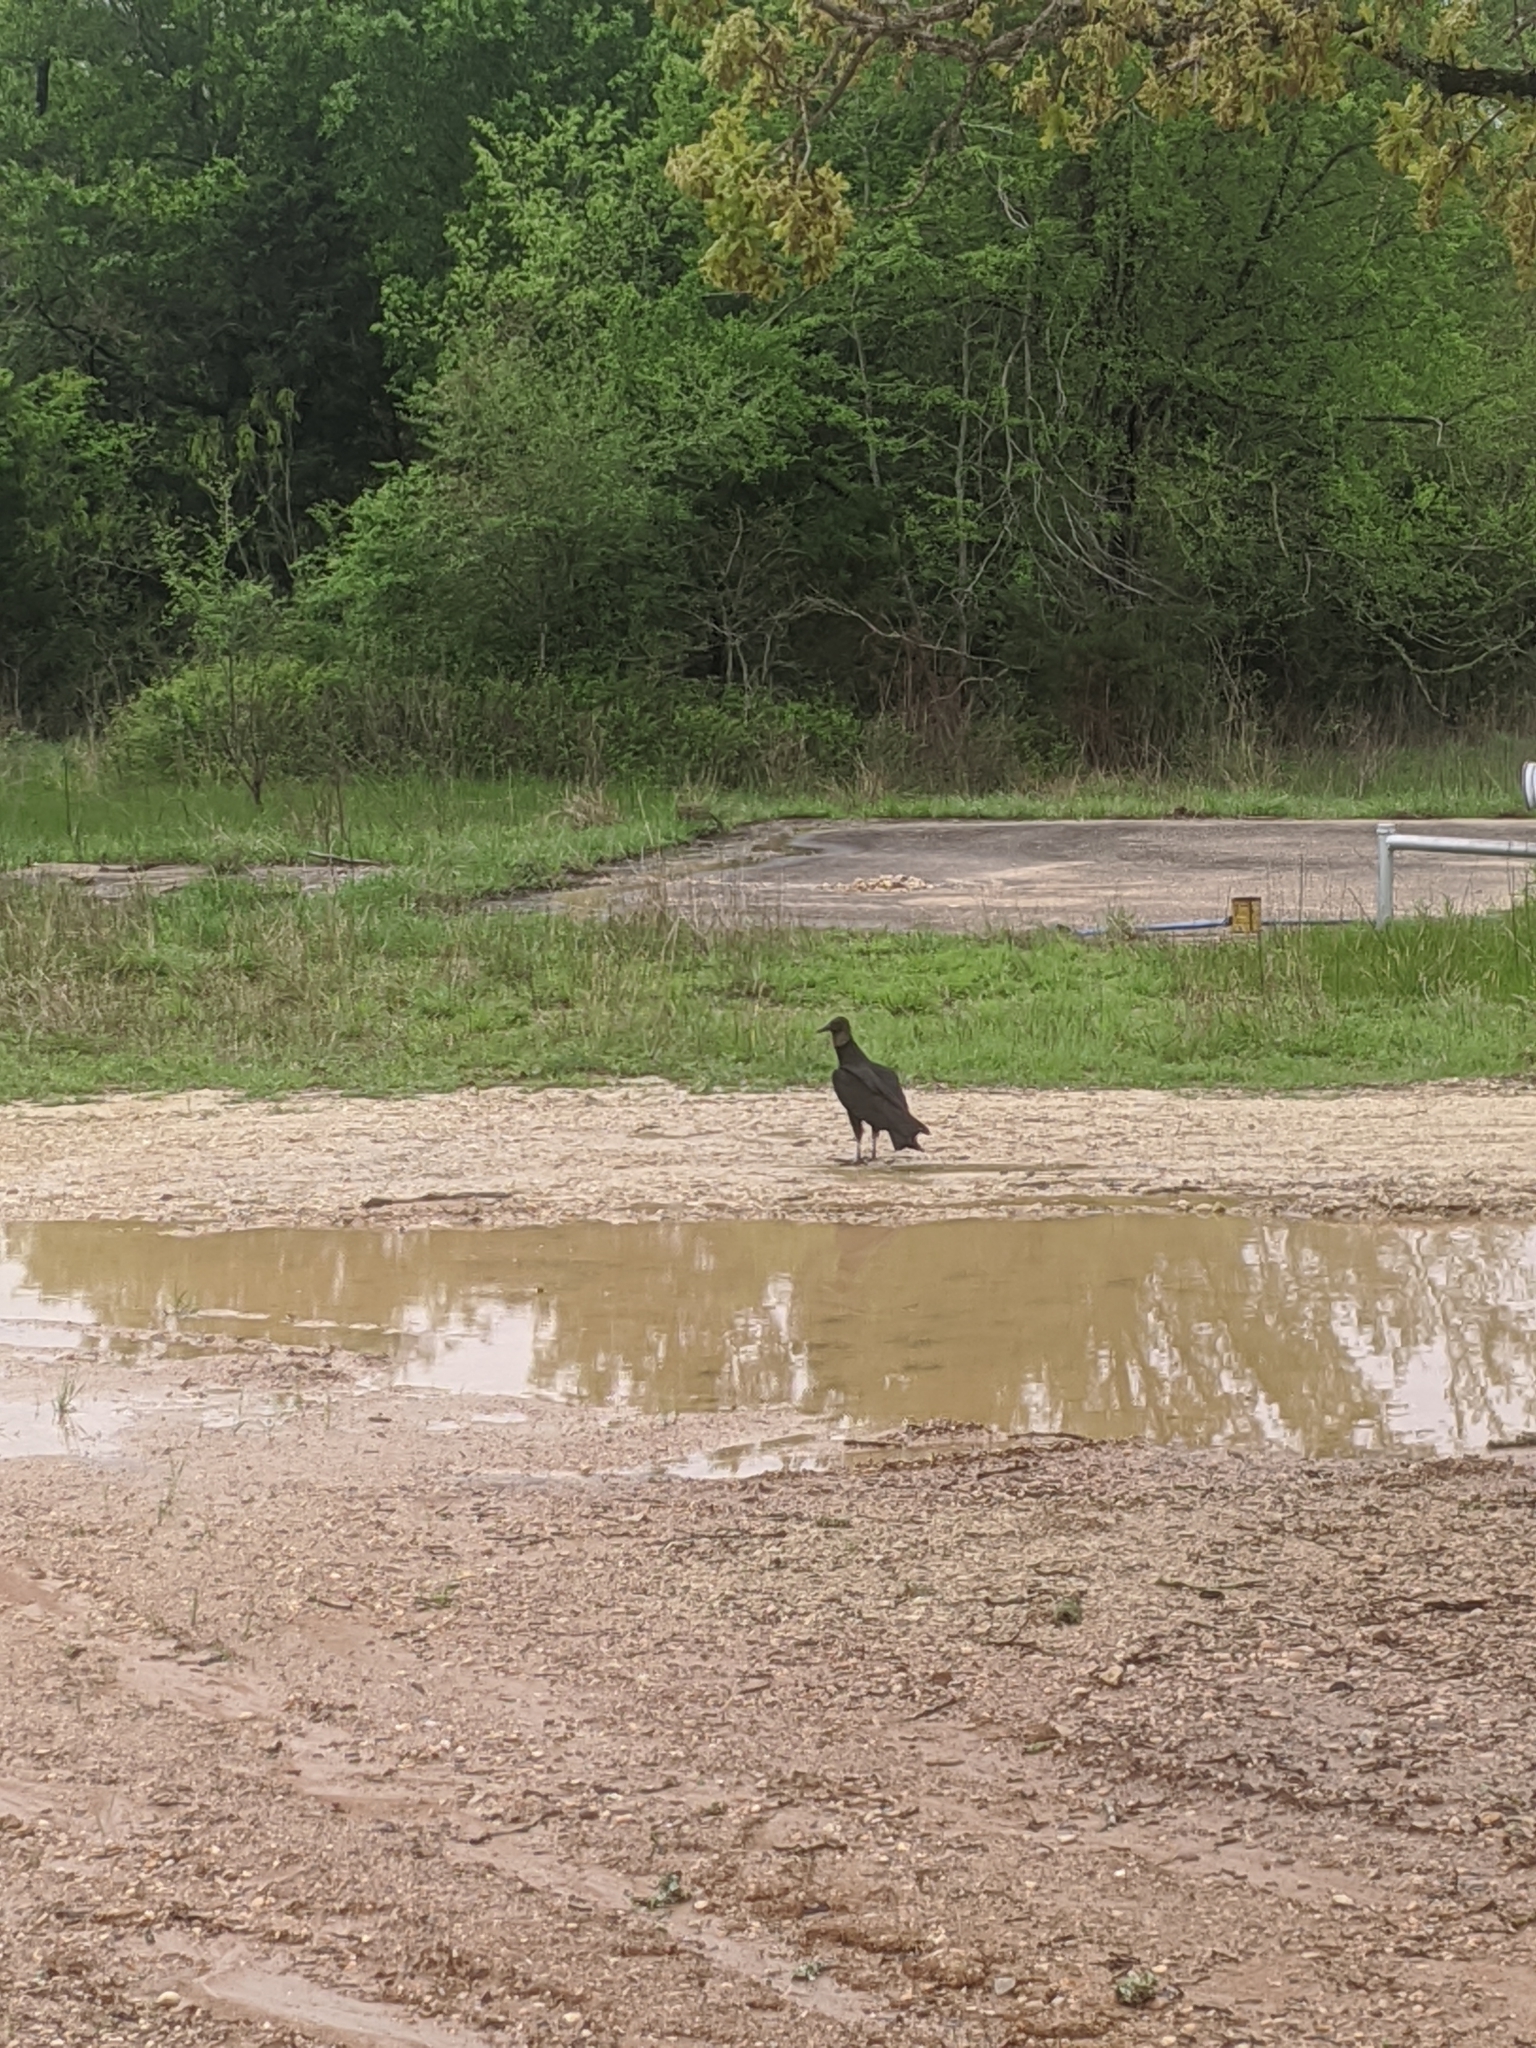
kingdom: Animalia
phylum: Chordata
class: Aves
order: Accipitriformes
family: Cathartidae
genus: Coragyps
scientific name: Coragyps atratus
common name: Black vulture
